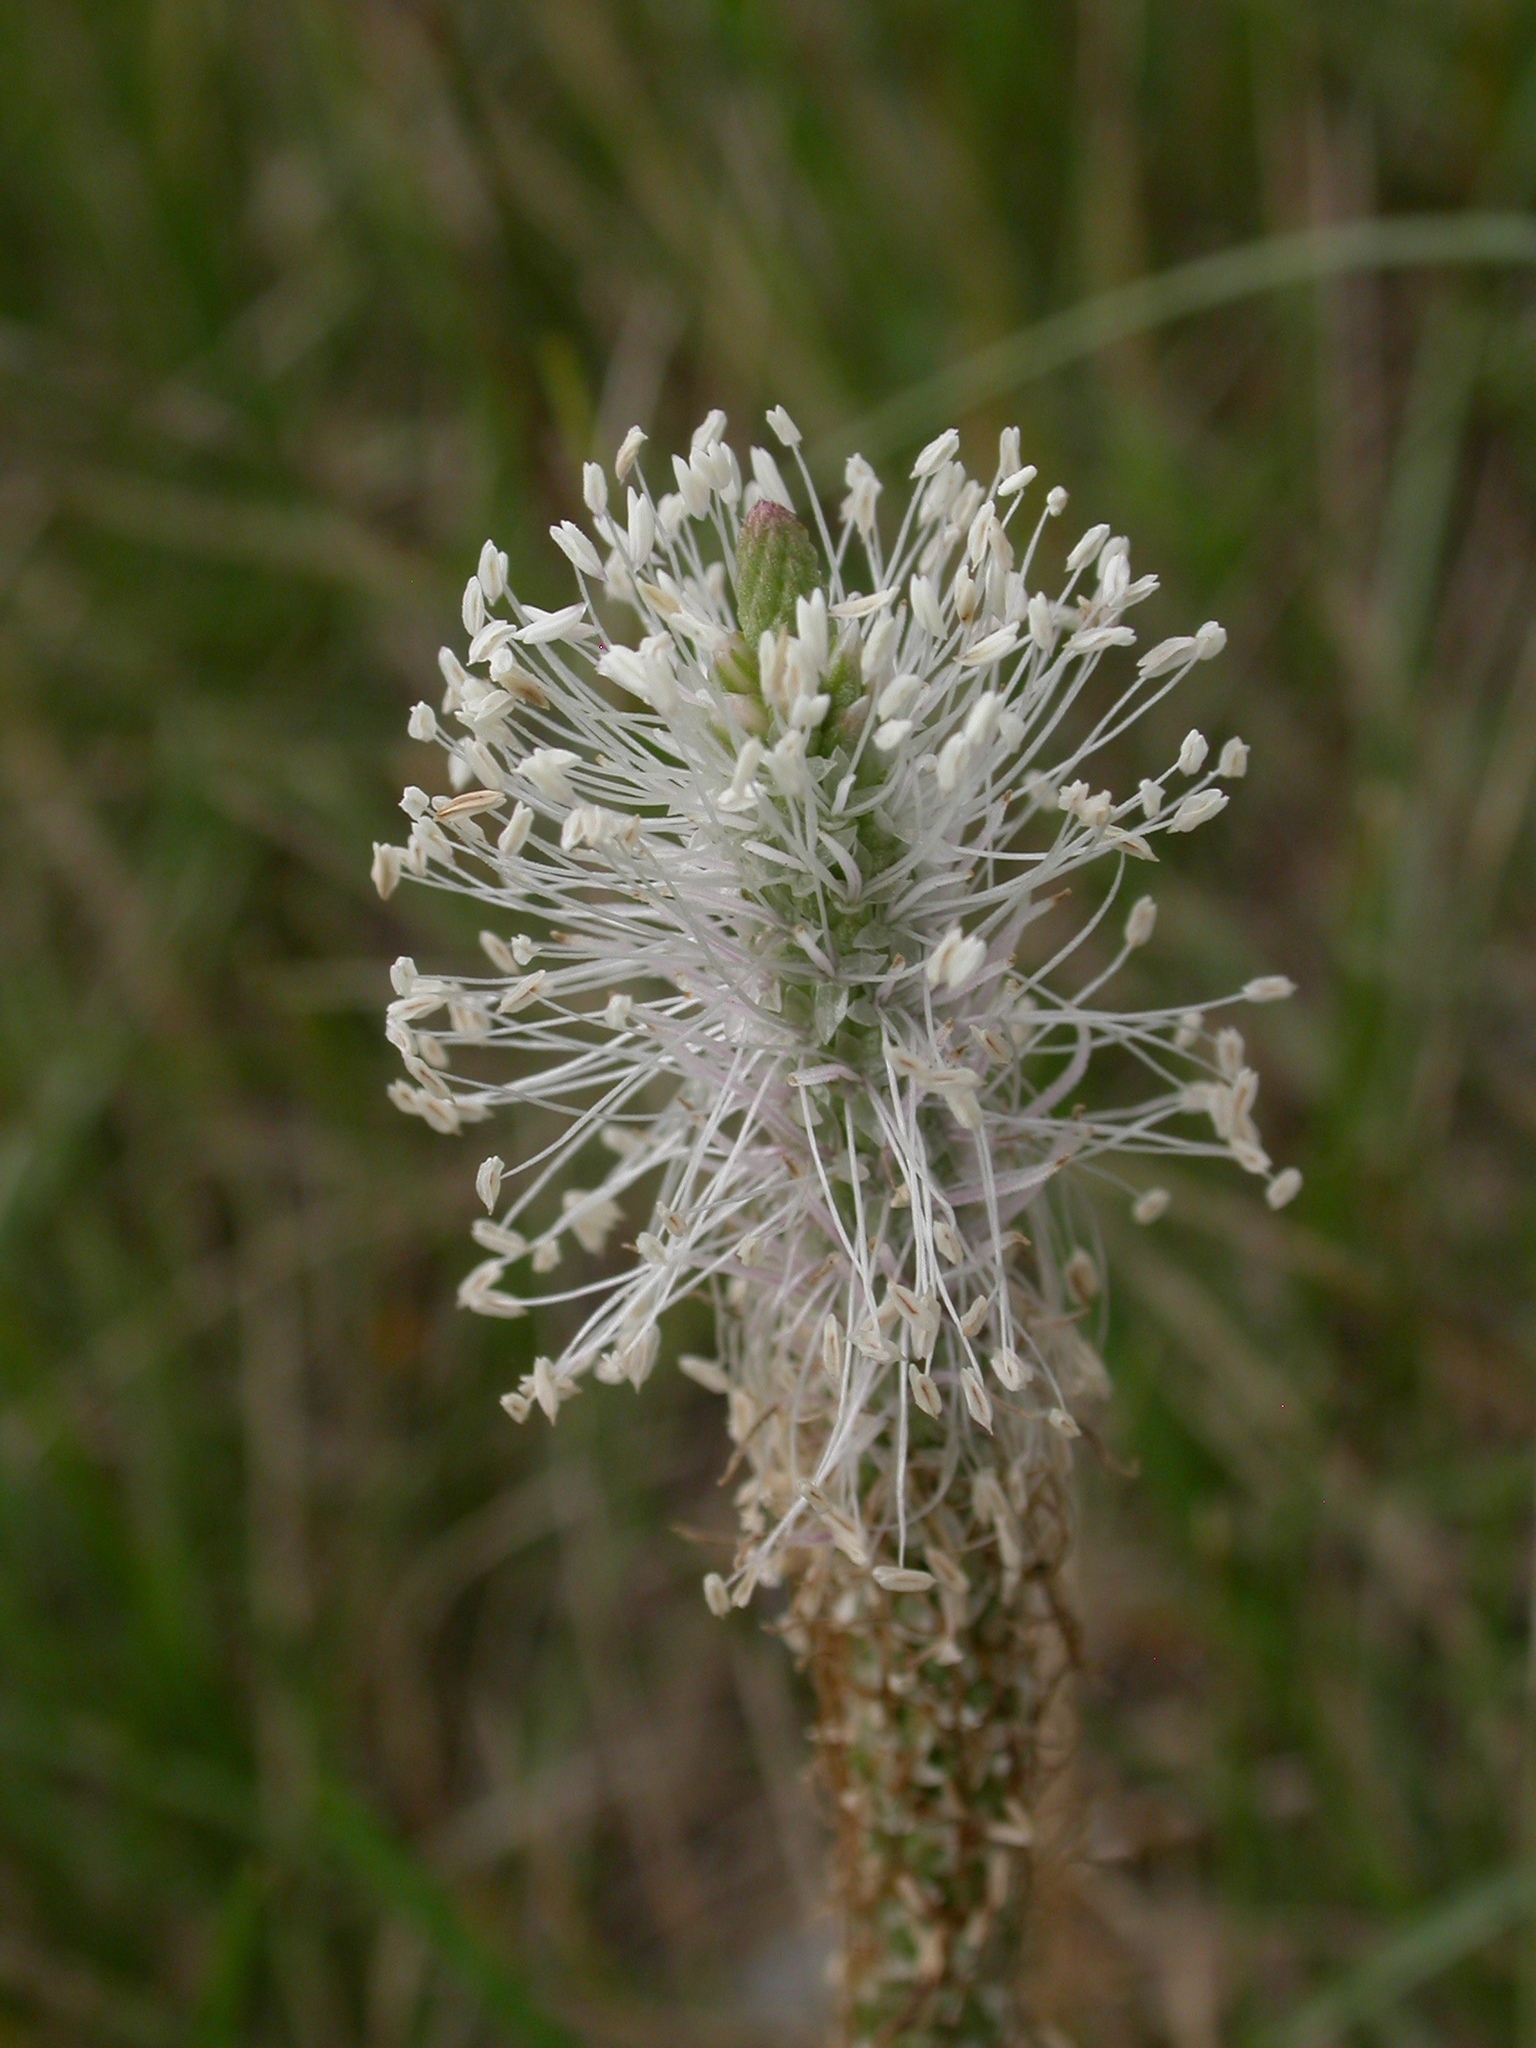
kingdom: Plantae
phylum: Tracheophyta
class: Magnoliopsida
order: Lamiales
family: Plantaginaceae
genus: Plantago
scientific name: Plantago media
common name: Hoary plantain
